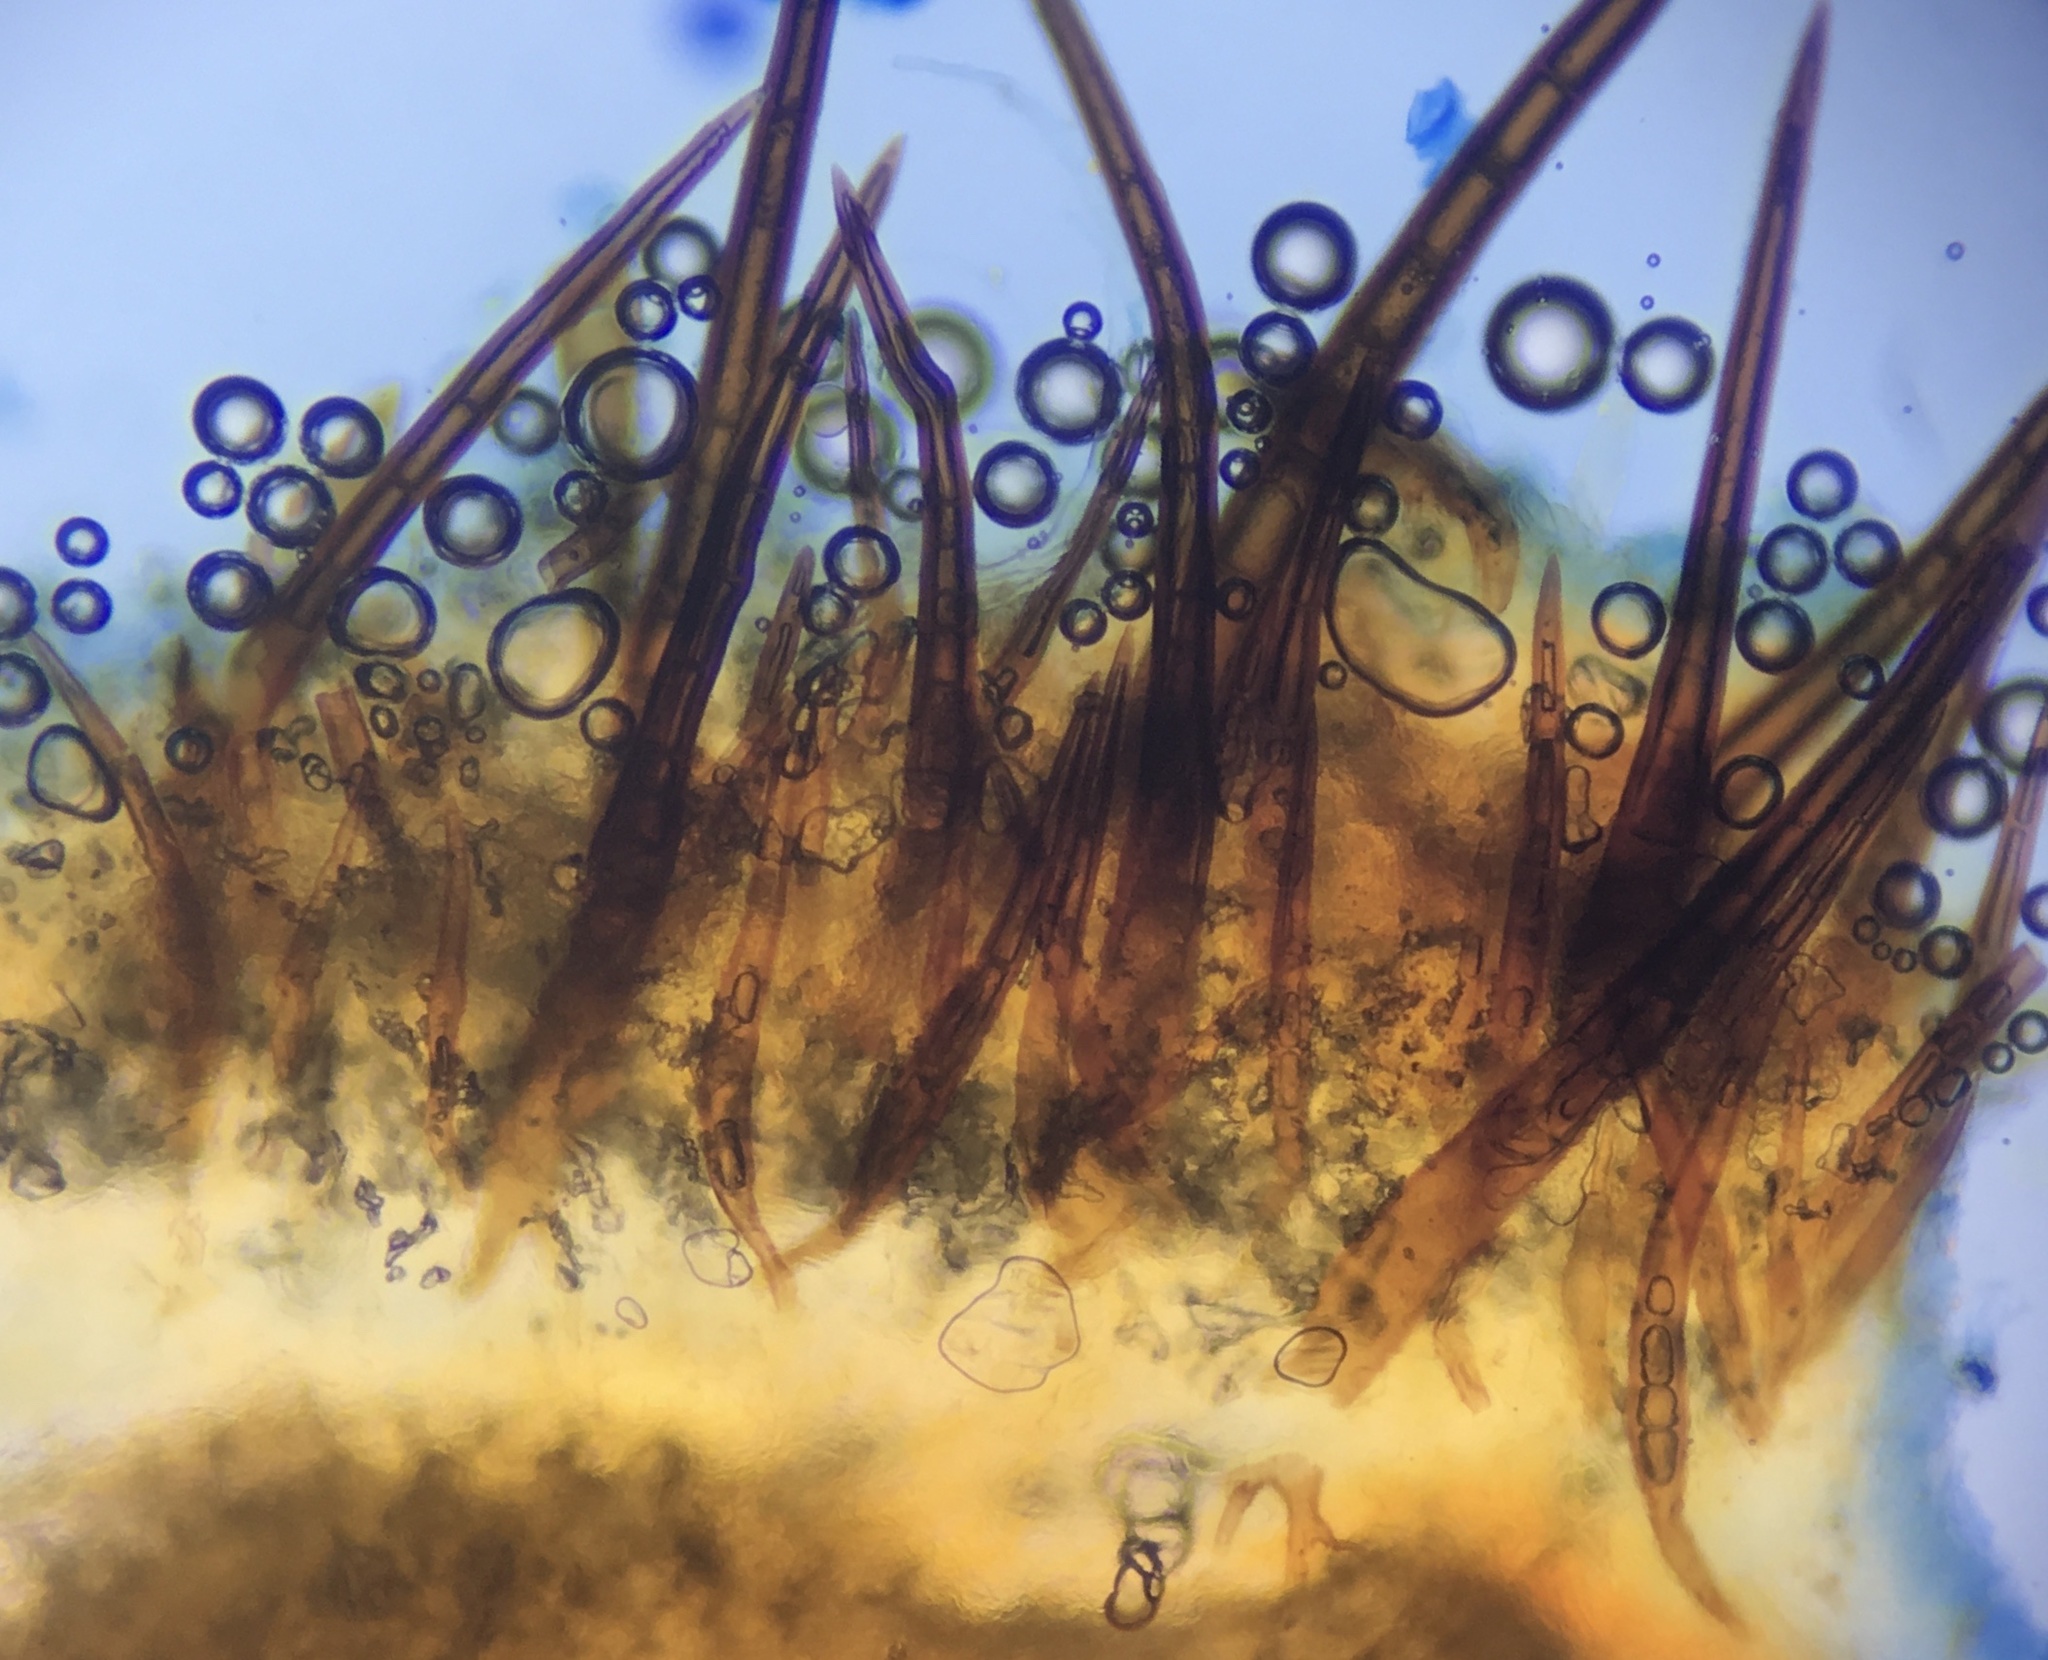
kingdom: Fungi
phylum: Ascomycota
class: Pezizomycetes
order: Pezizales
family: Pyronemataceae
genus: Scutellinia
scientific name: Scutellinia pennsylvanica
